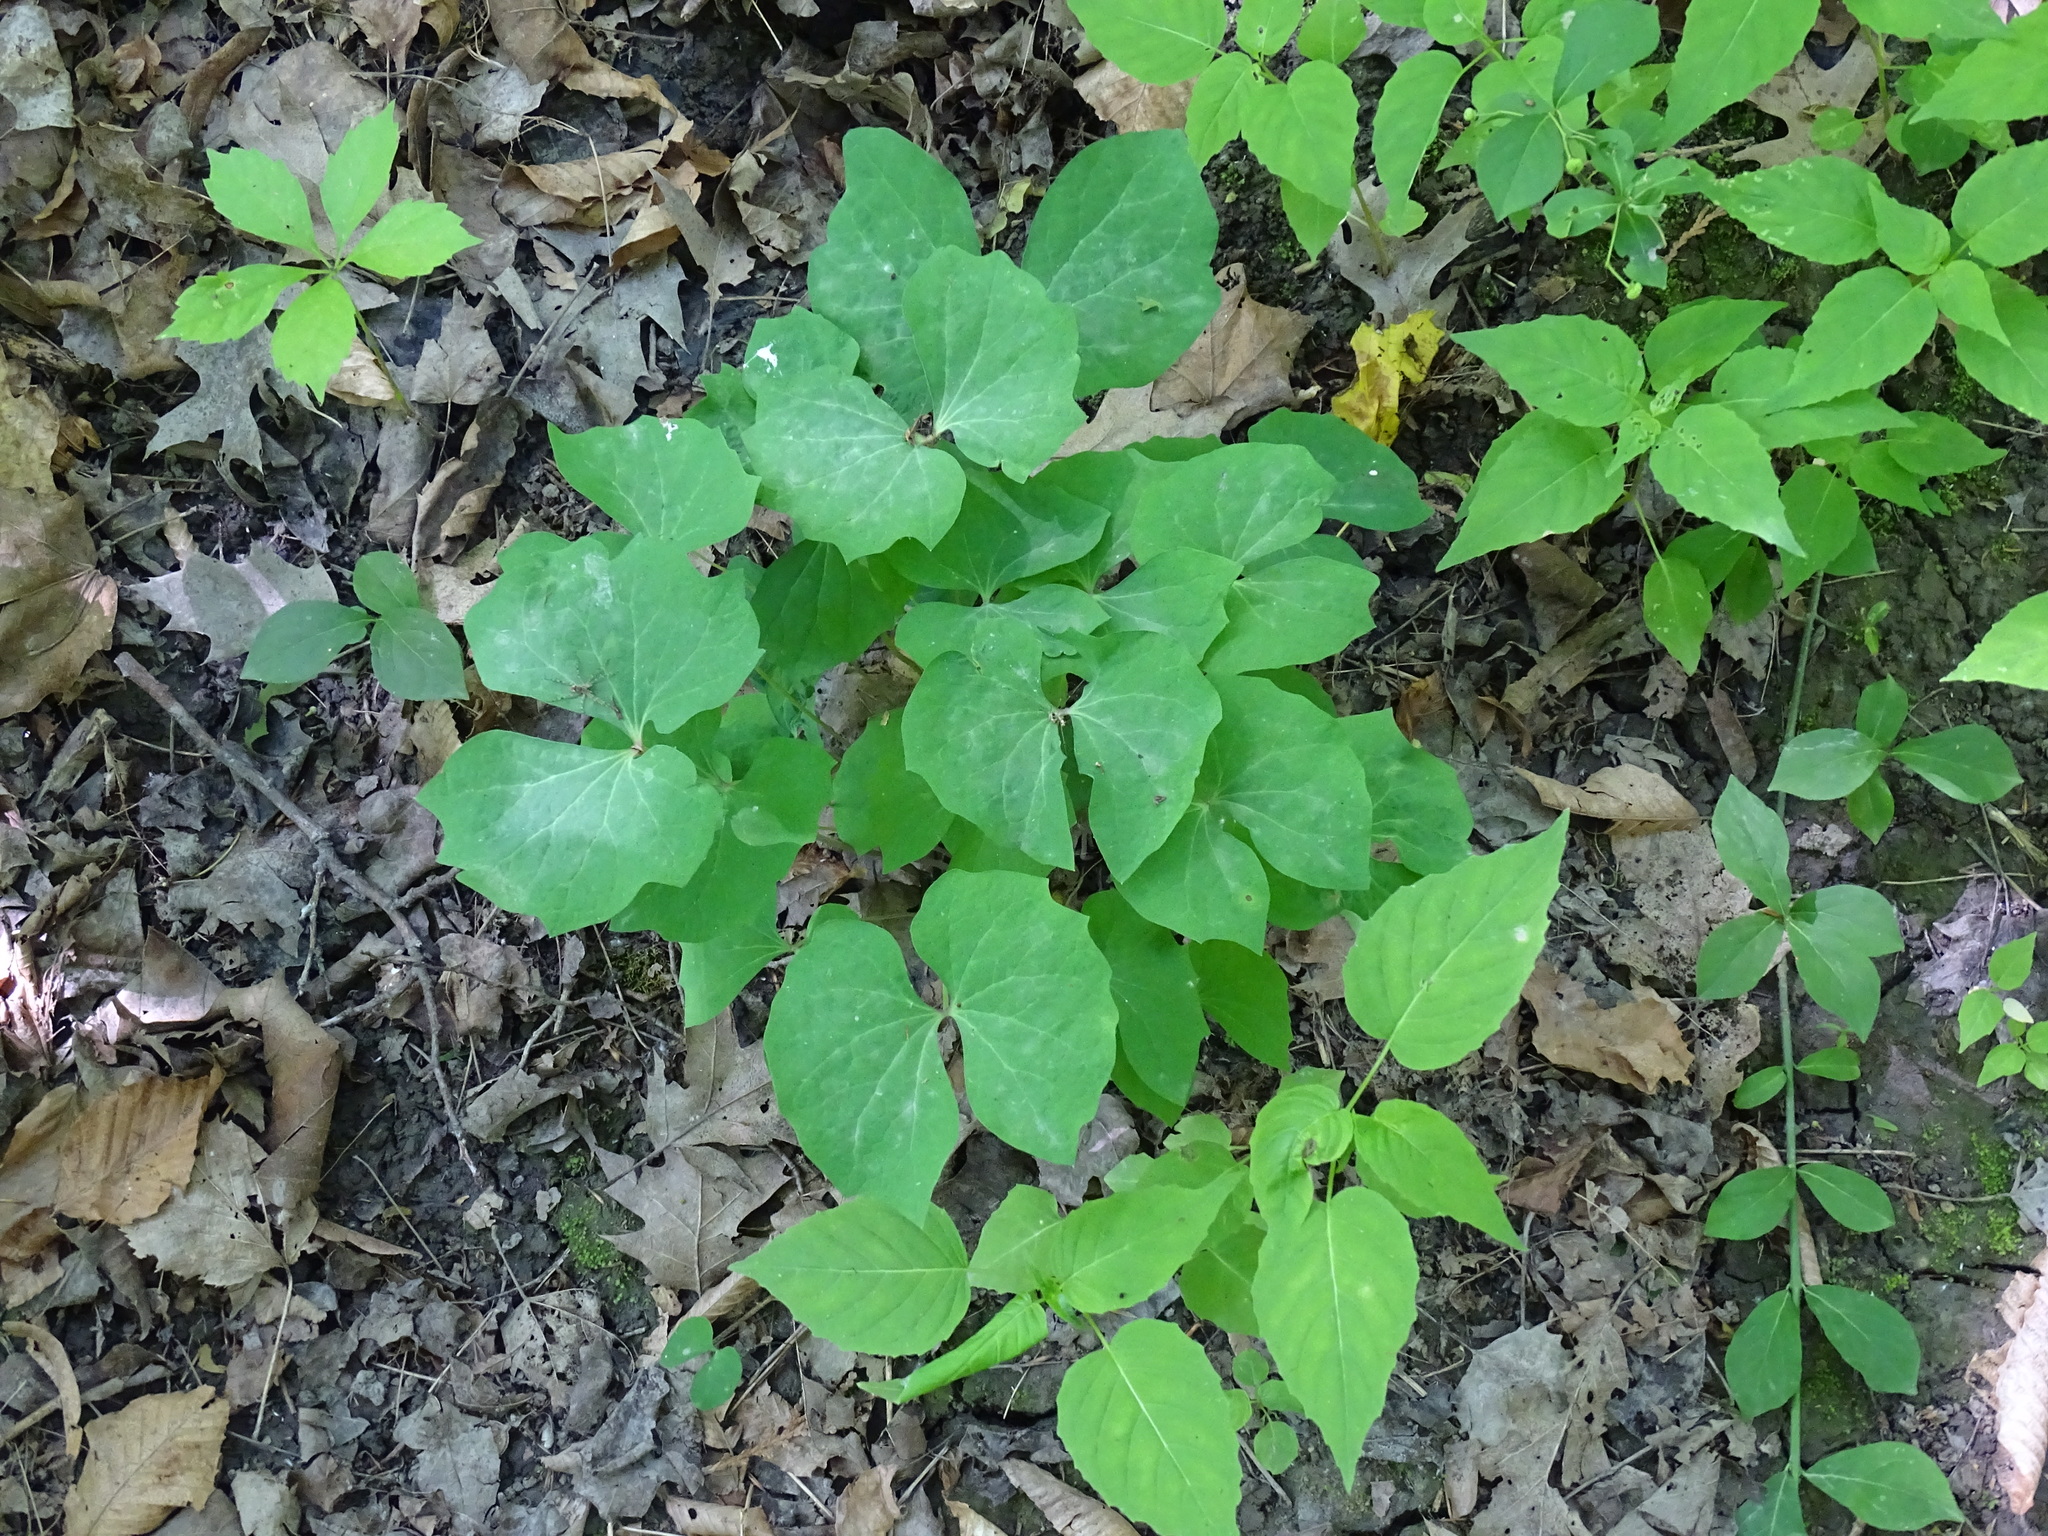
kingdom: Plantae
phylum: Tracheophyta
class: Magnoliopsida
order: Ranunculales
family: Berberidaceae
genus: Jeffersonia
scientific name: Jeffersonia diphylla
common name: Rheumatism-root
